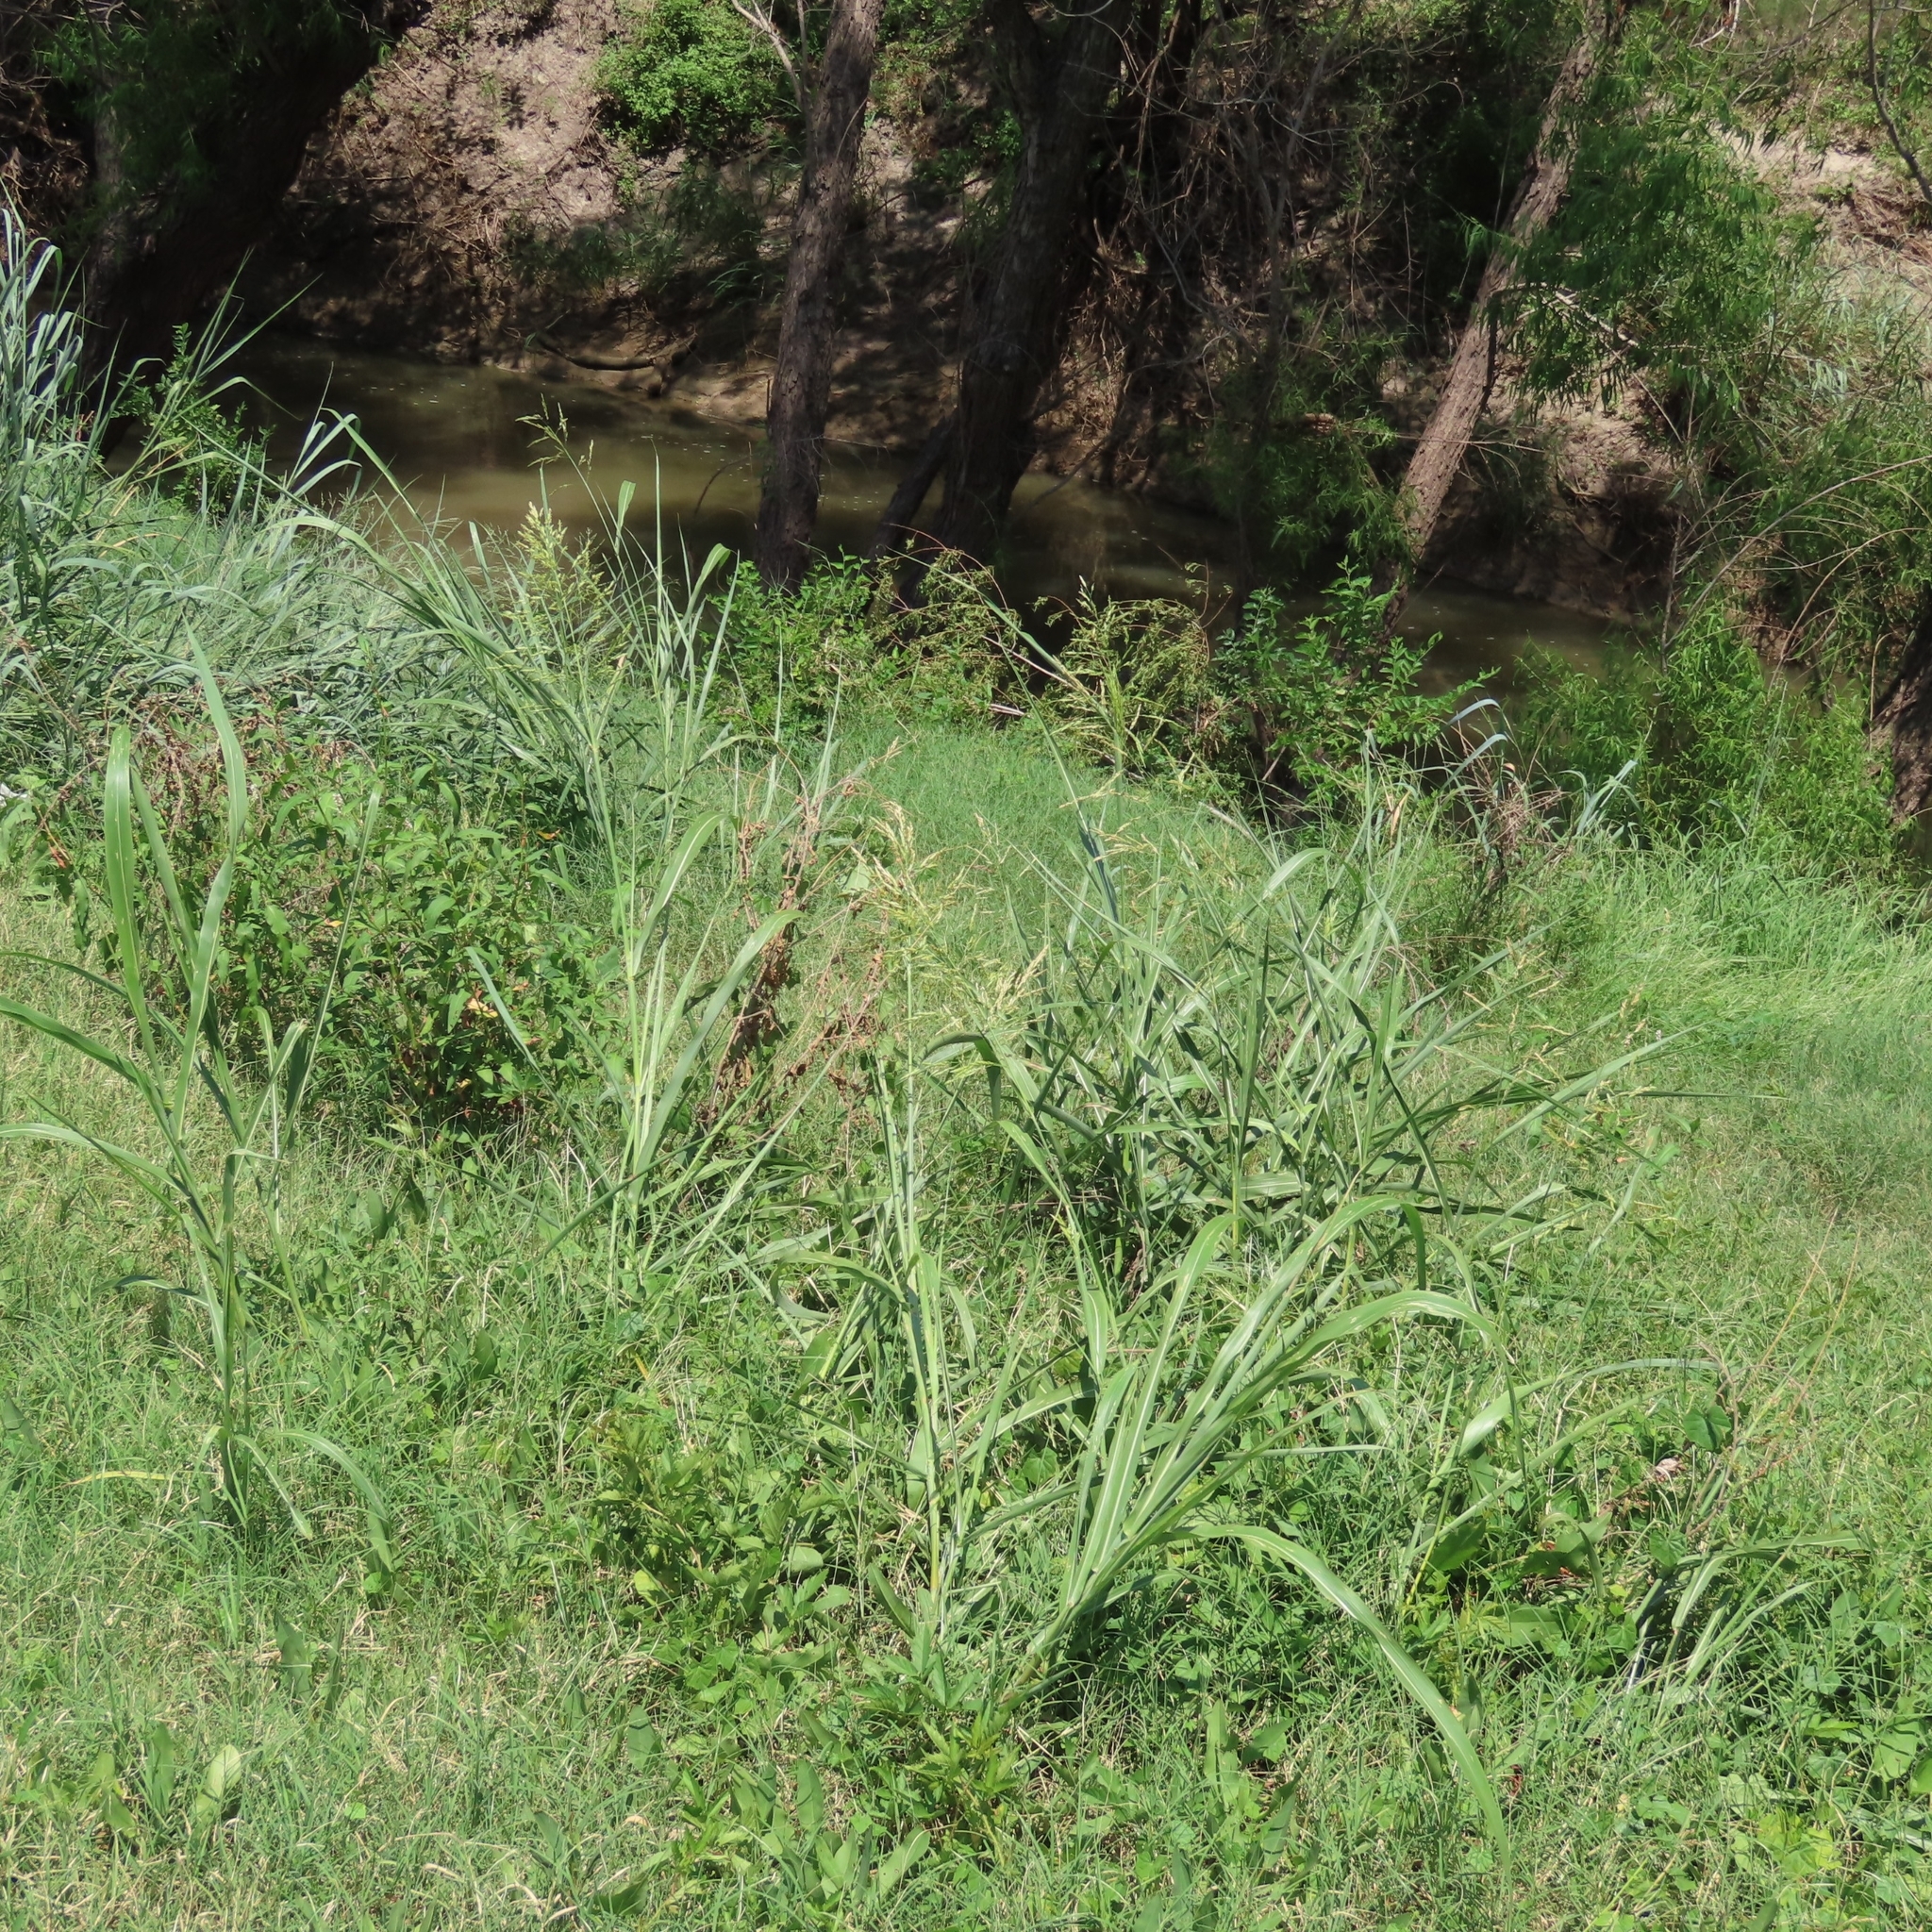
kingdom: Plantae
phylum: Tracheophyta
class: Liliopsida
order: Poales
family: Poaceae
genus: Sorghum
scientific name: Sorghum halepense
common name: Johnson-grass
